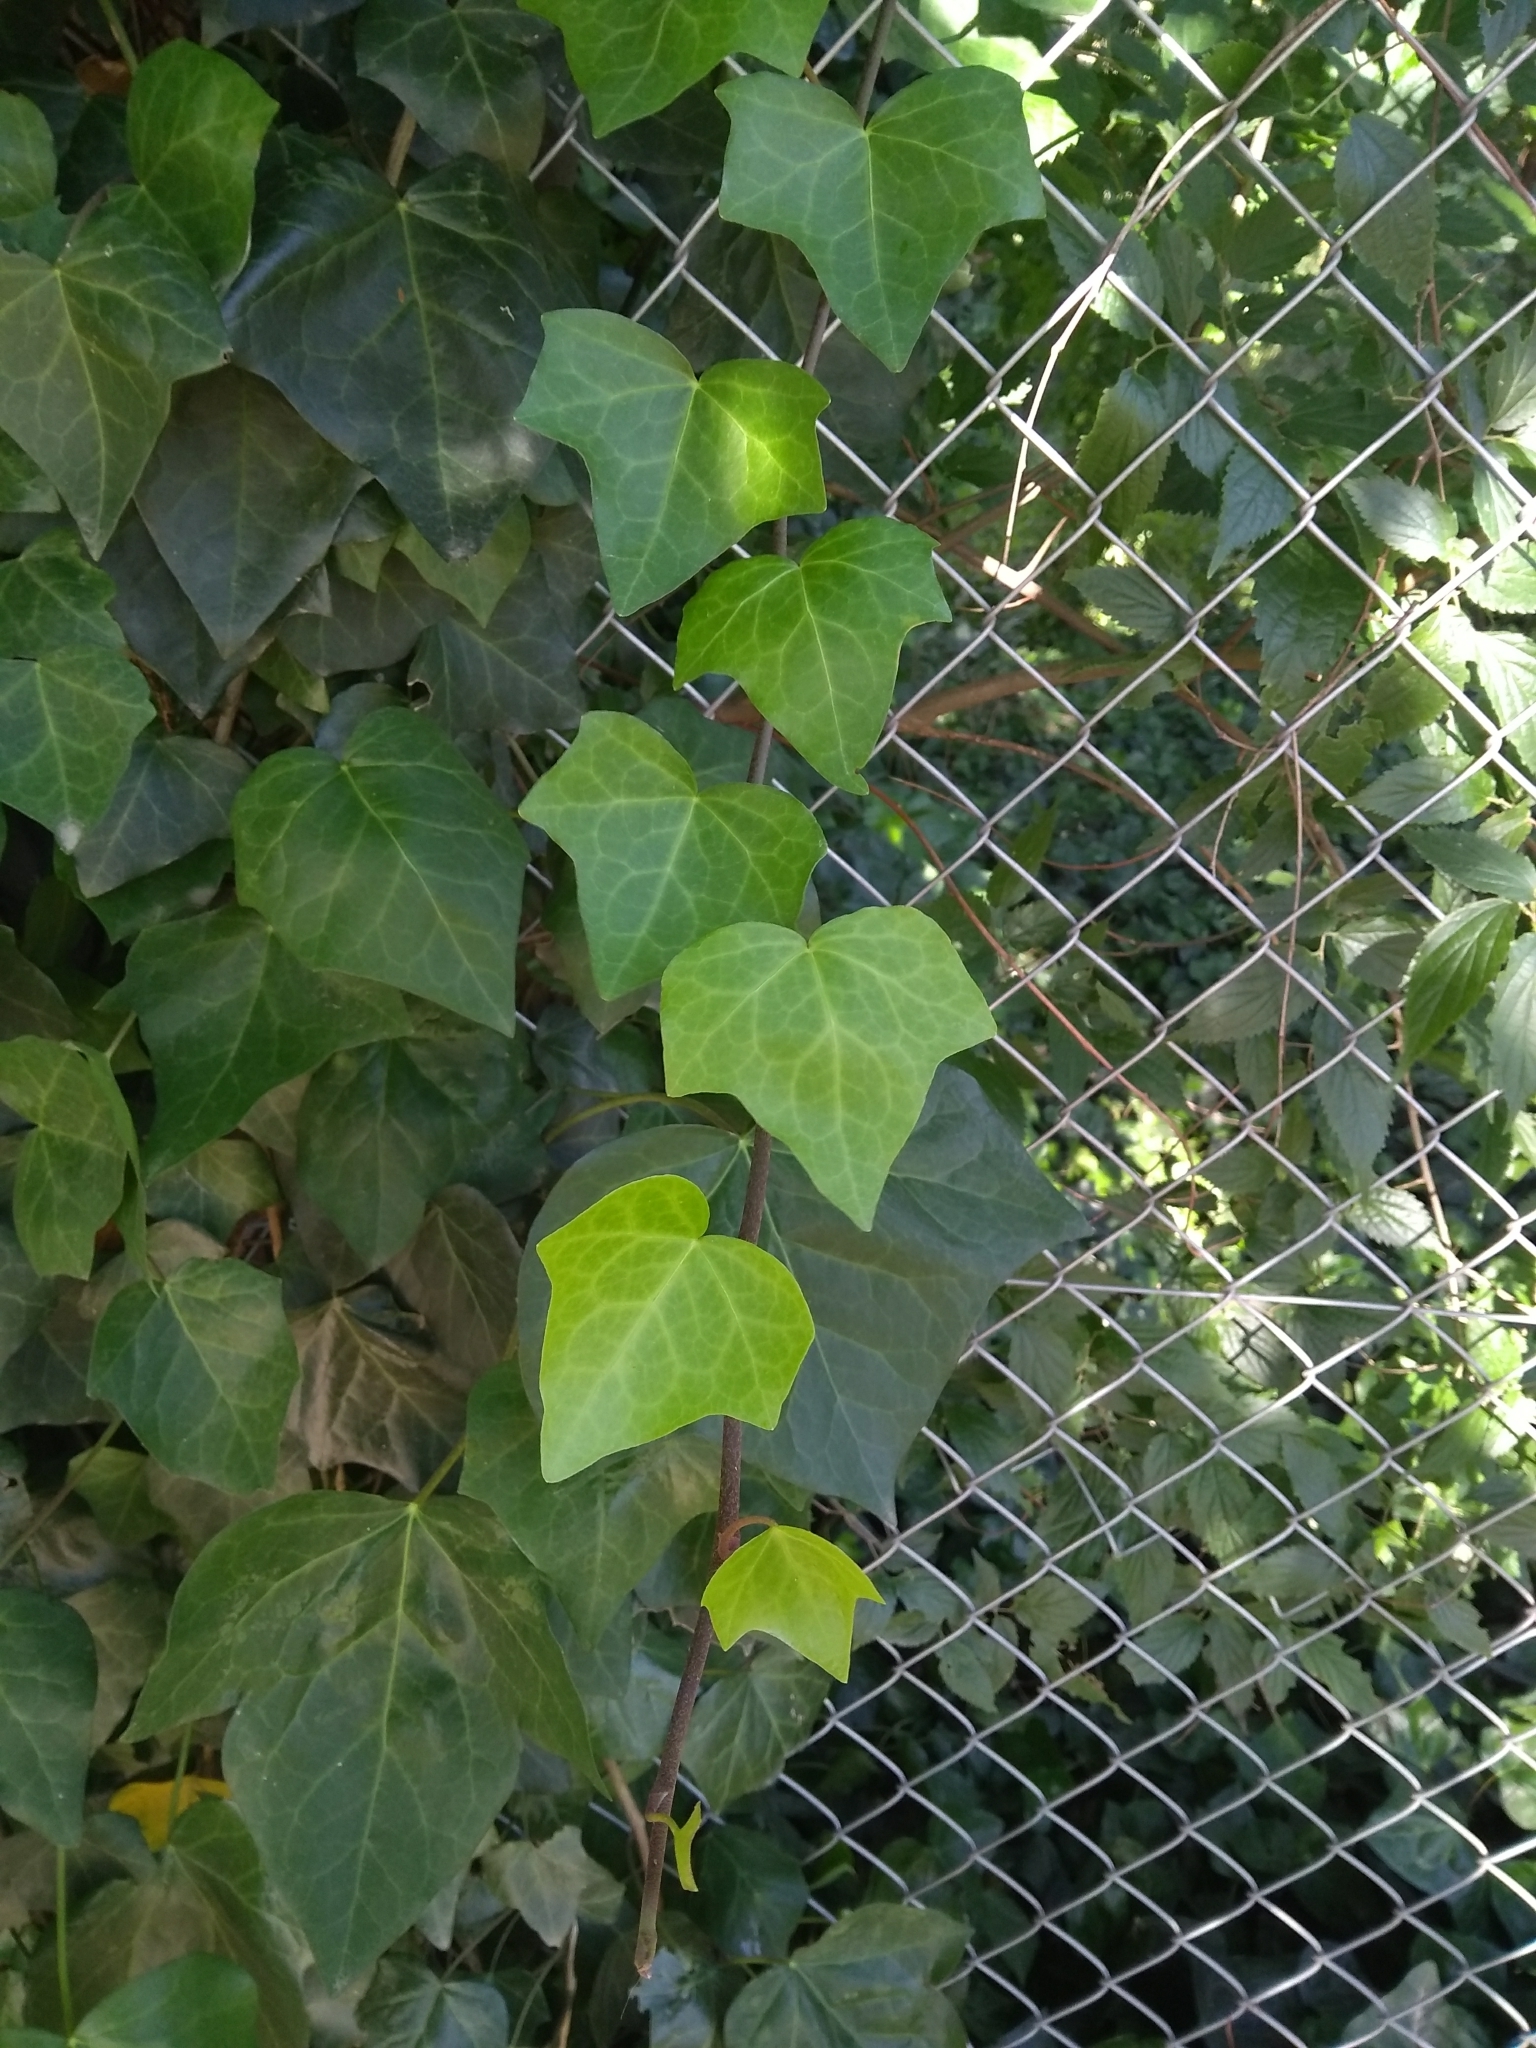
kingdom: Plantae
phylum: Tracheophyta
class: Magnoliopsida
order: Apiales
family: Araliaceae
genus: Hedera
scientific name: Hedera helix
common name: Ivy
